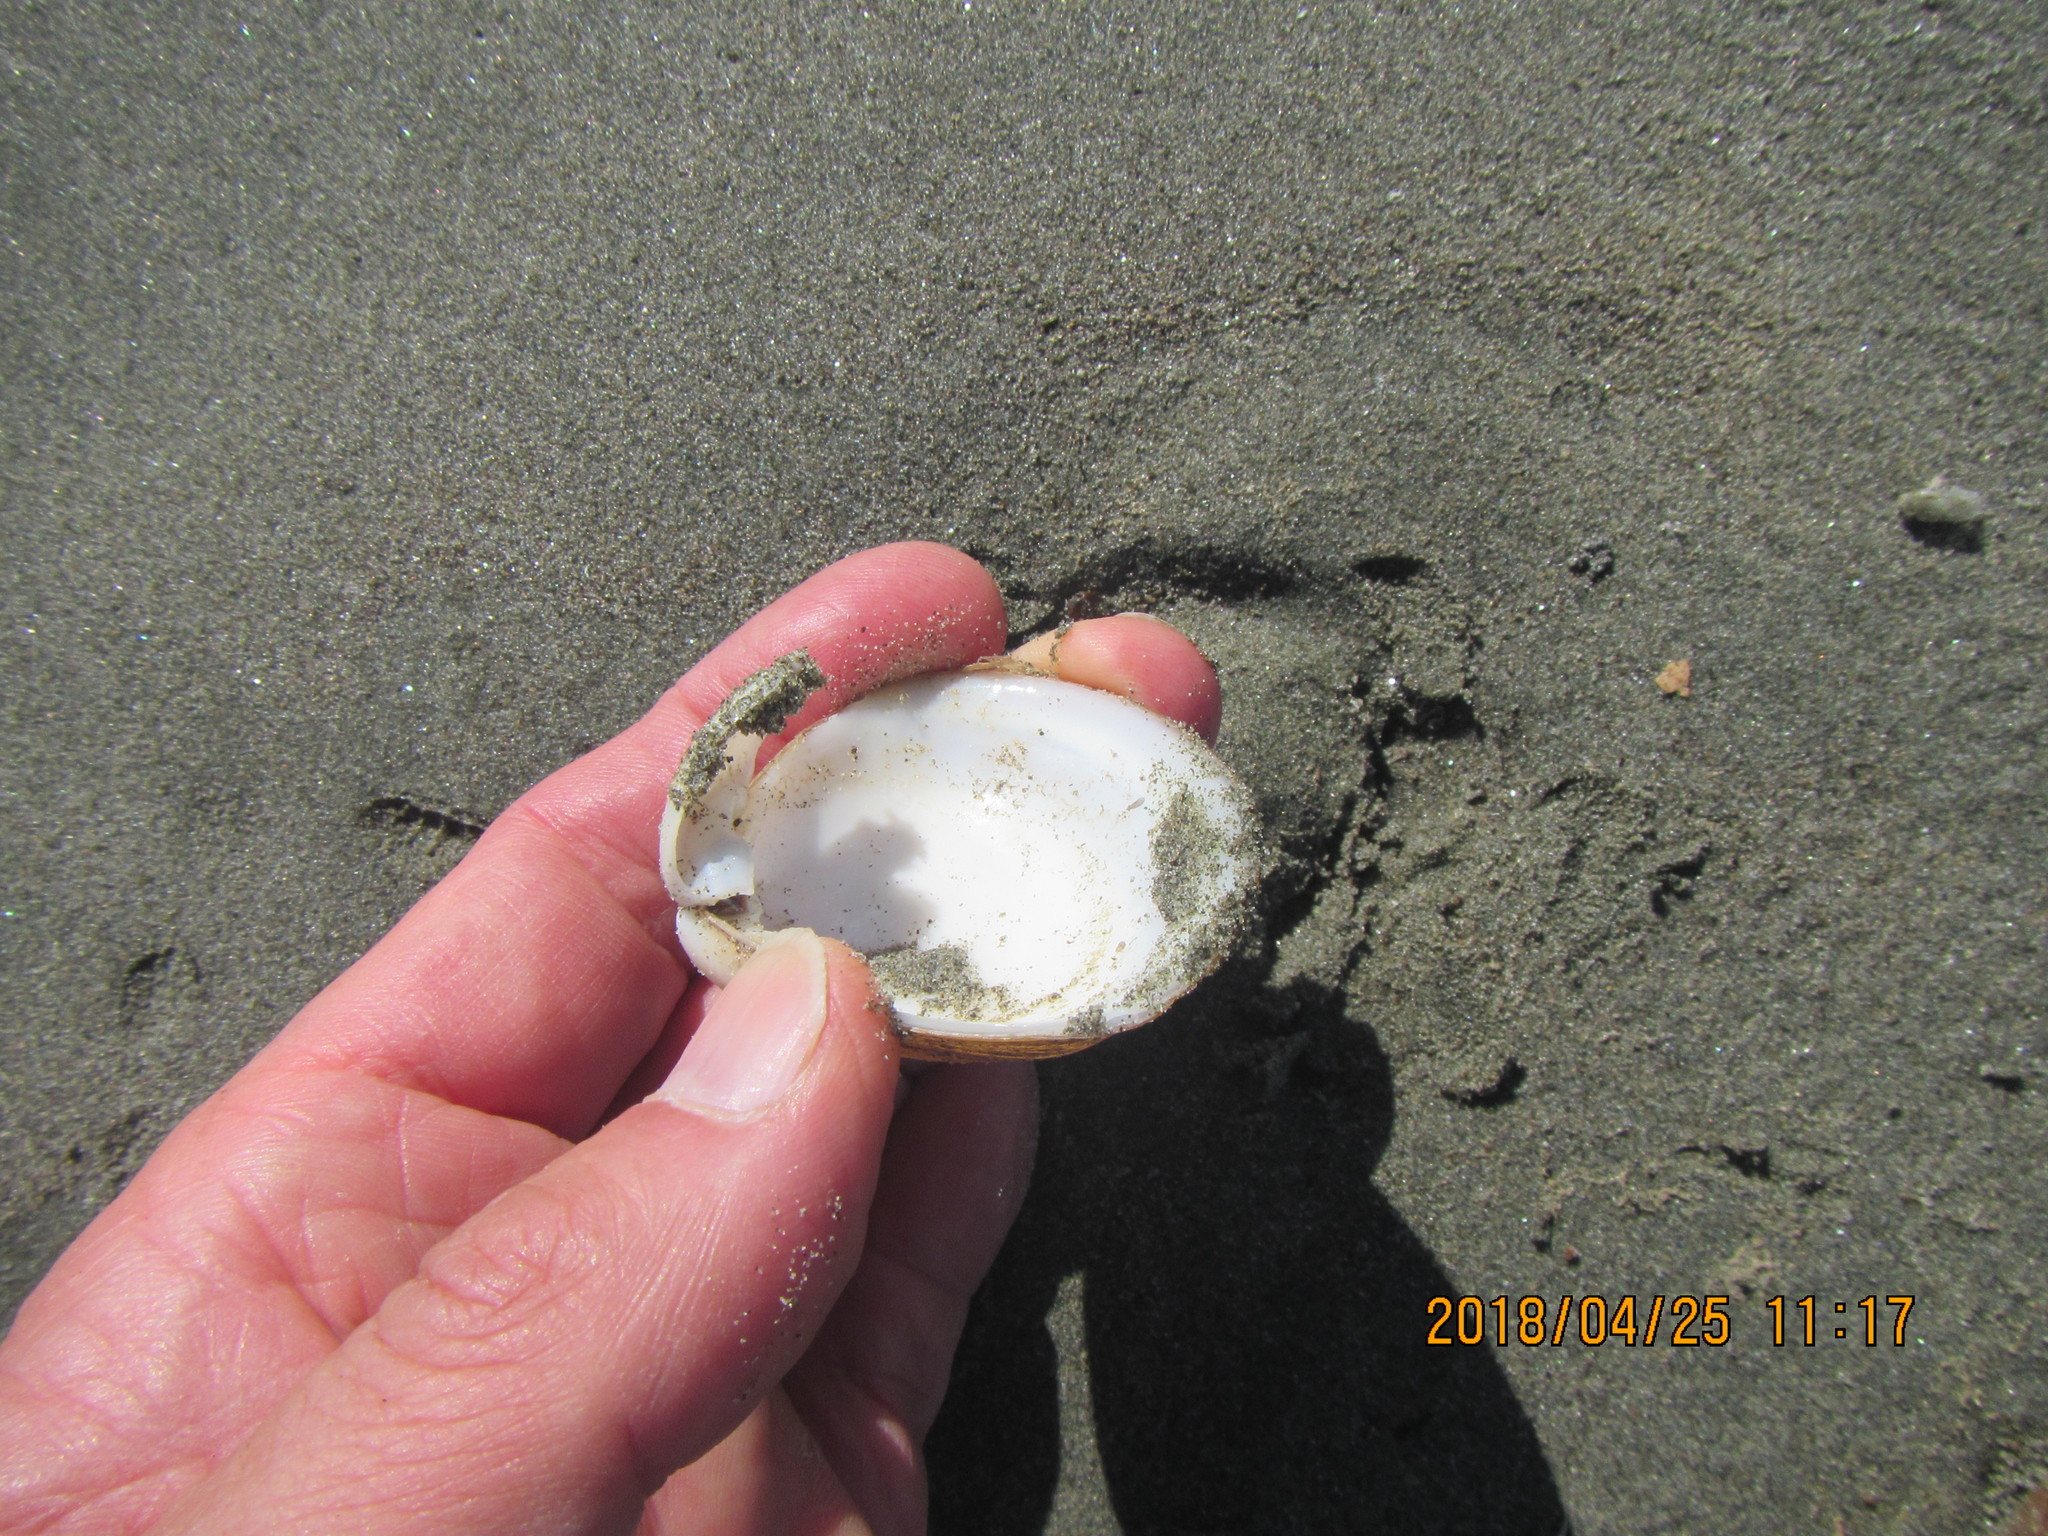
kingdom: Animalia
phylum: Mollusca
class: Bivalvia
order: Venerida
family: Mactridae
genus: Spisula
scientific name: Spisula murchisoni
